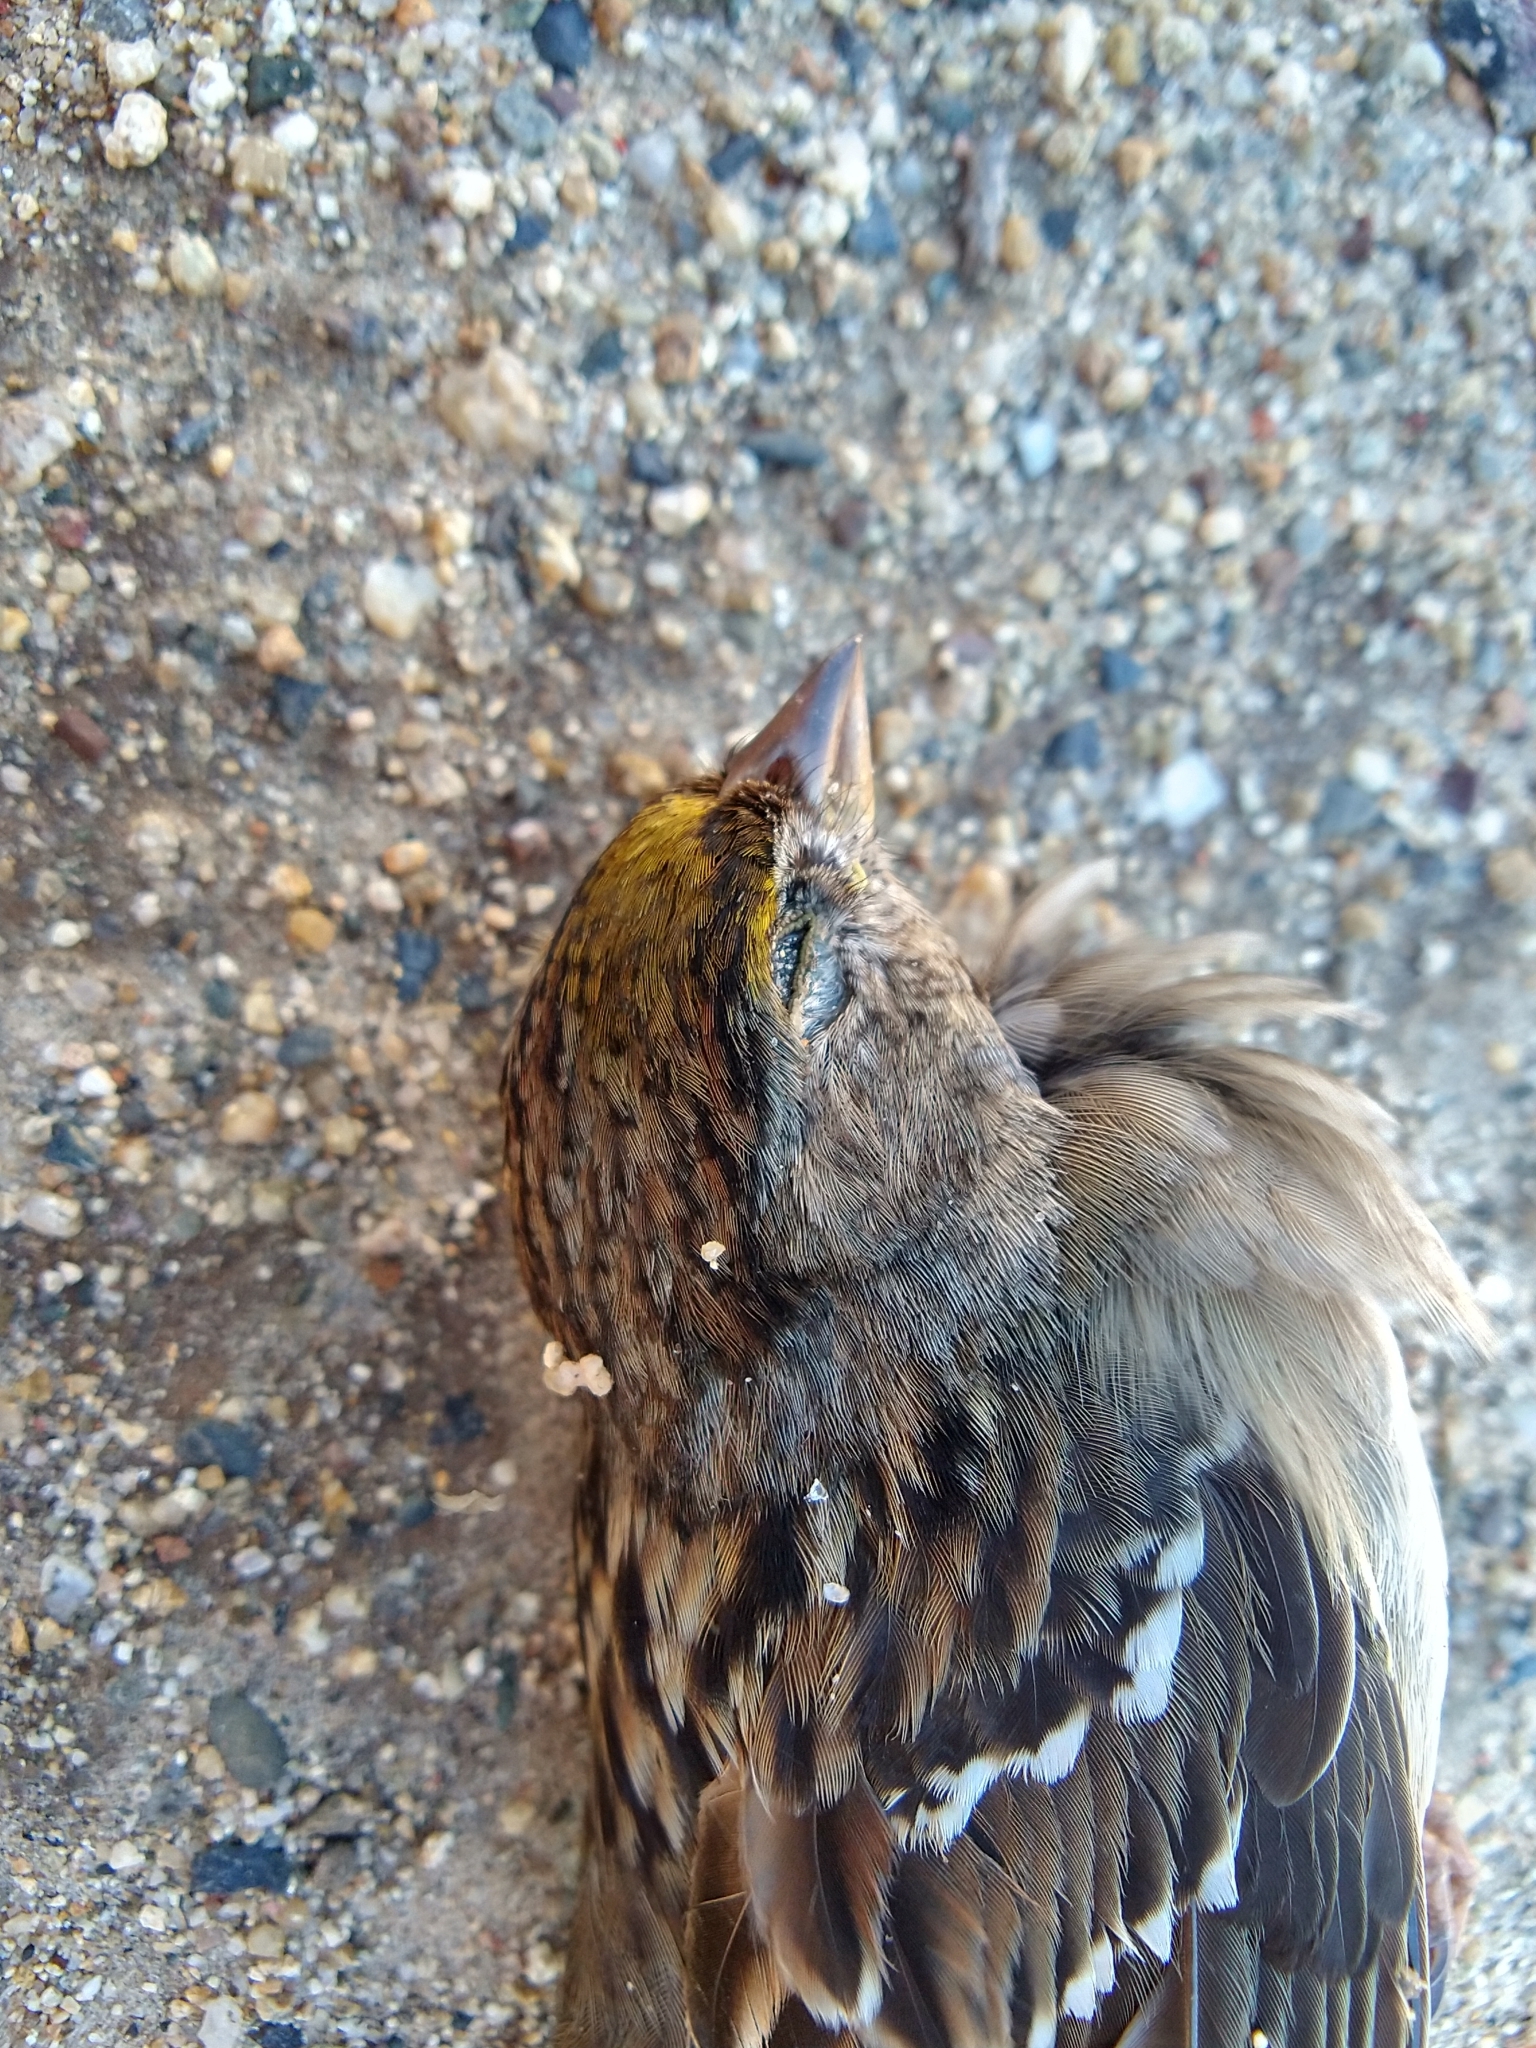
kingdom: Animalia
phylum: Chordata
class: Aves
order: Passeriformes
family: Passerellidae
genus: Zonotrichia
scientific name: Zonotrichia atricapilla
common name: Golden-crowned sparrow
